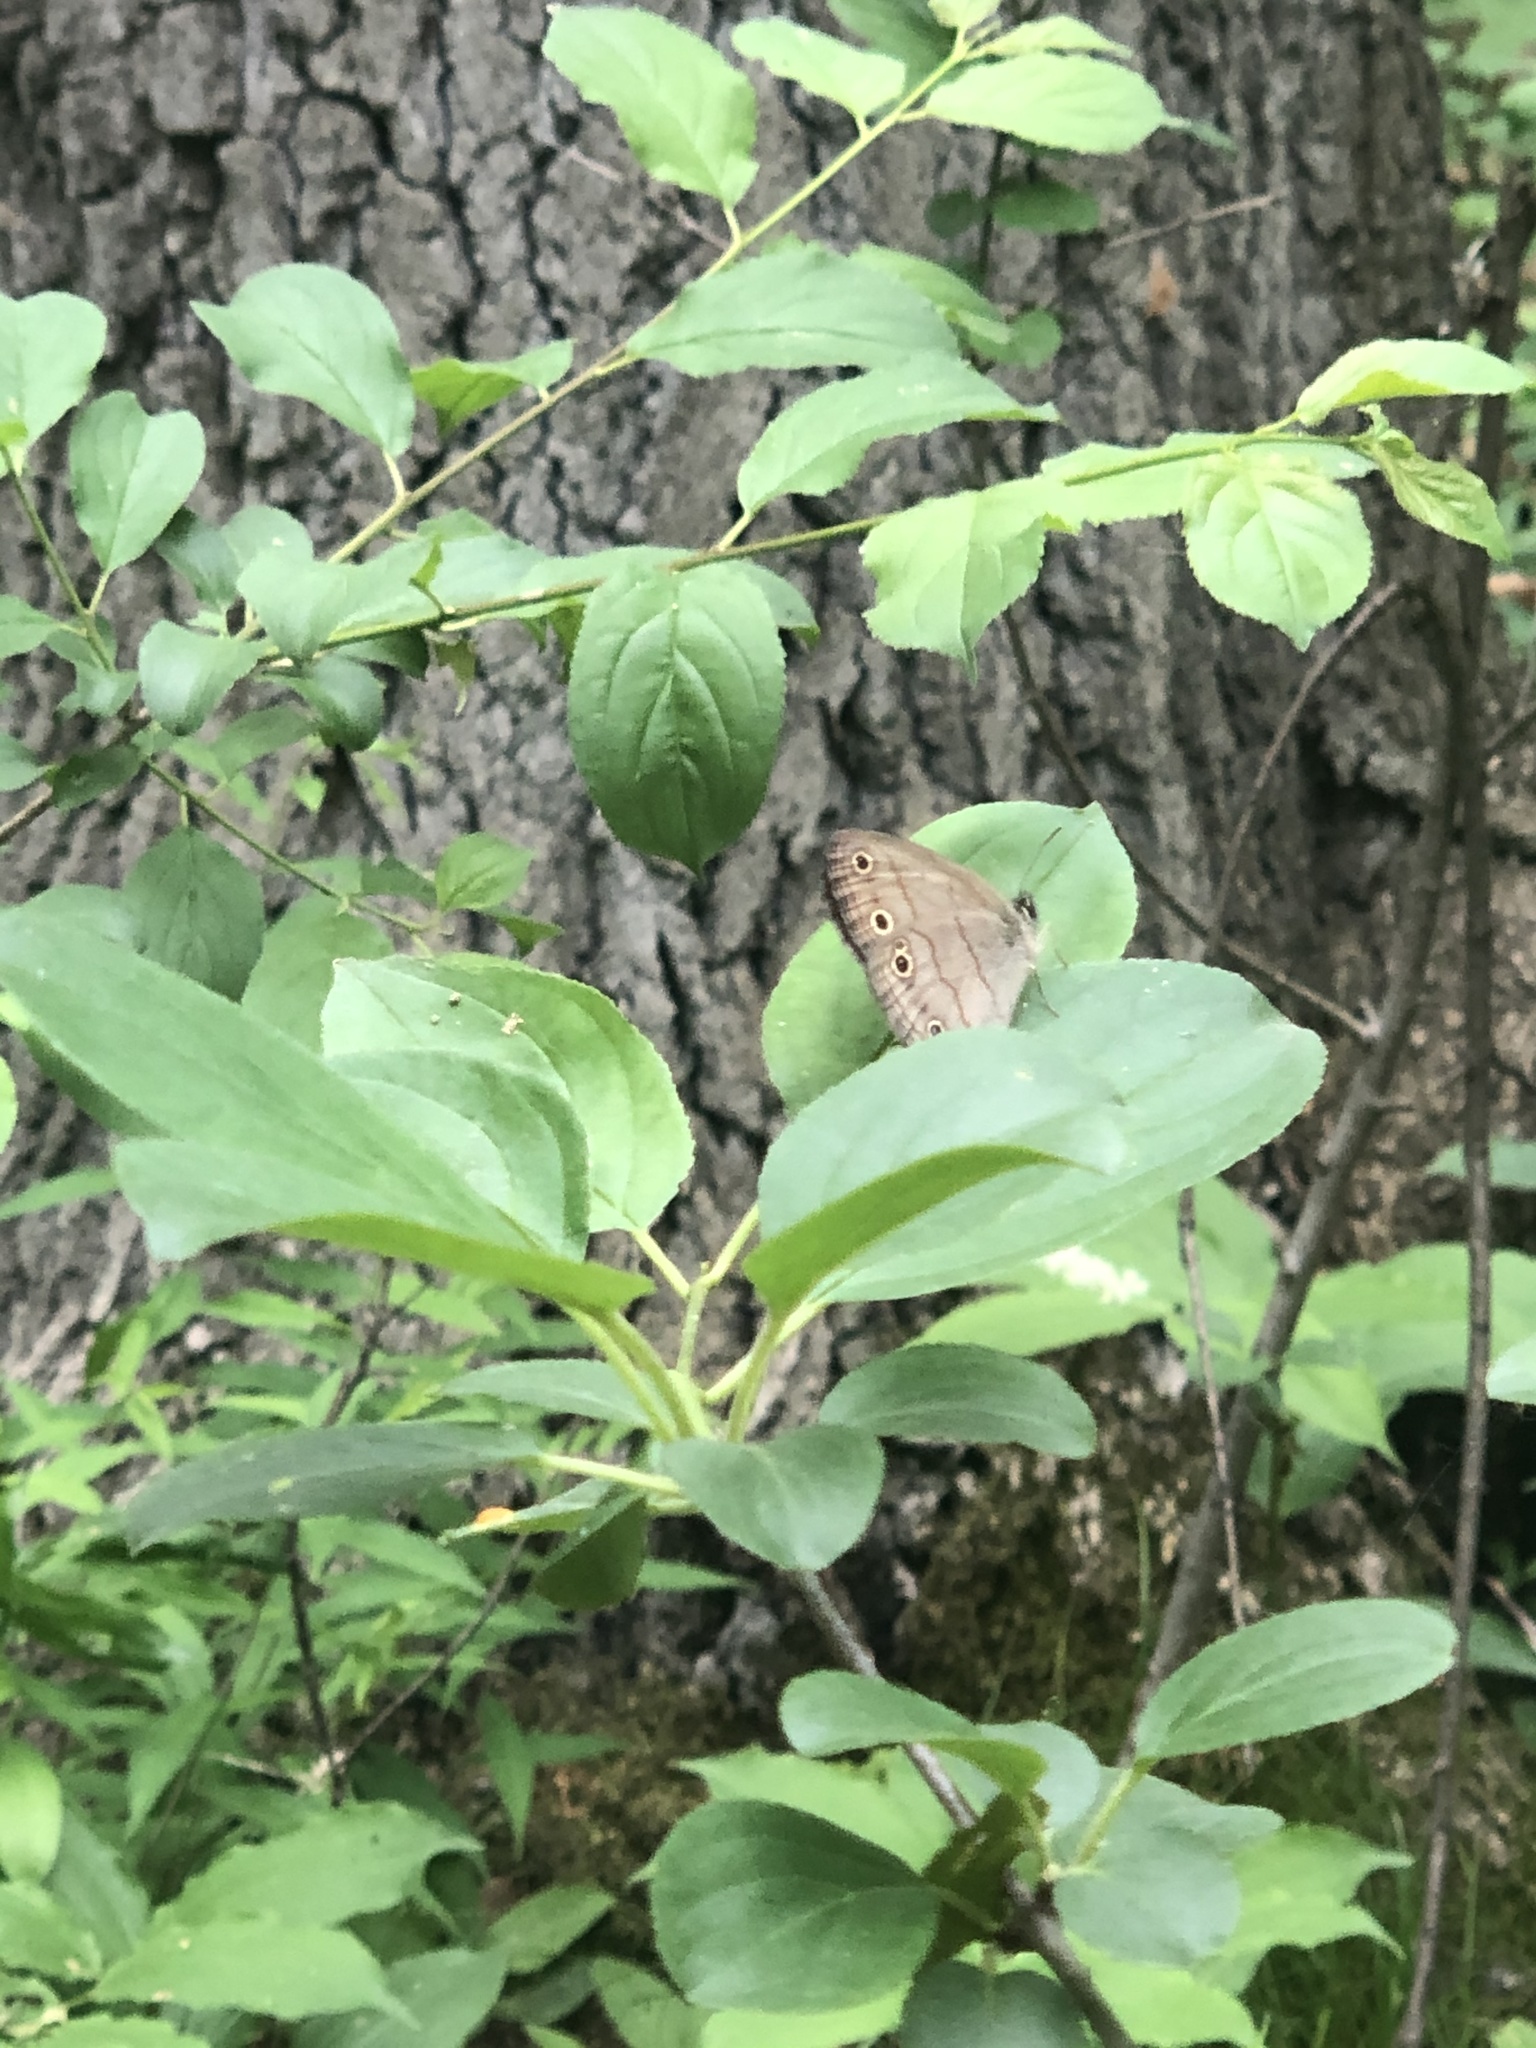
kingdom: Animalia
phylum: Arthropoda
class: Insecta
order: Lepidoptera
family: Nymphalidae
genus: Euptychia
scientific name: Euptychia cymela
